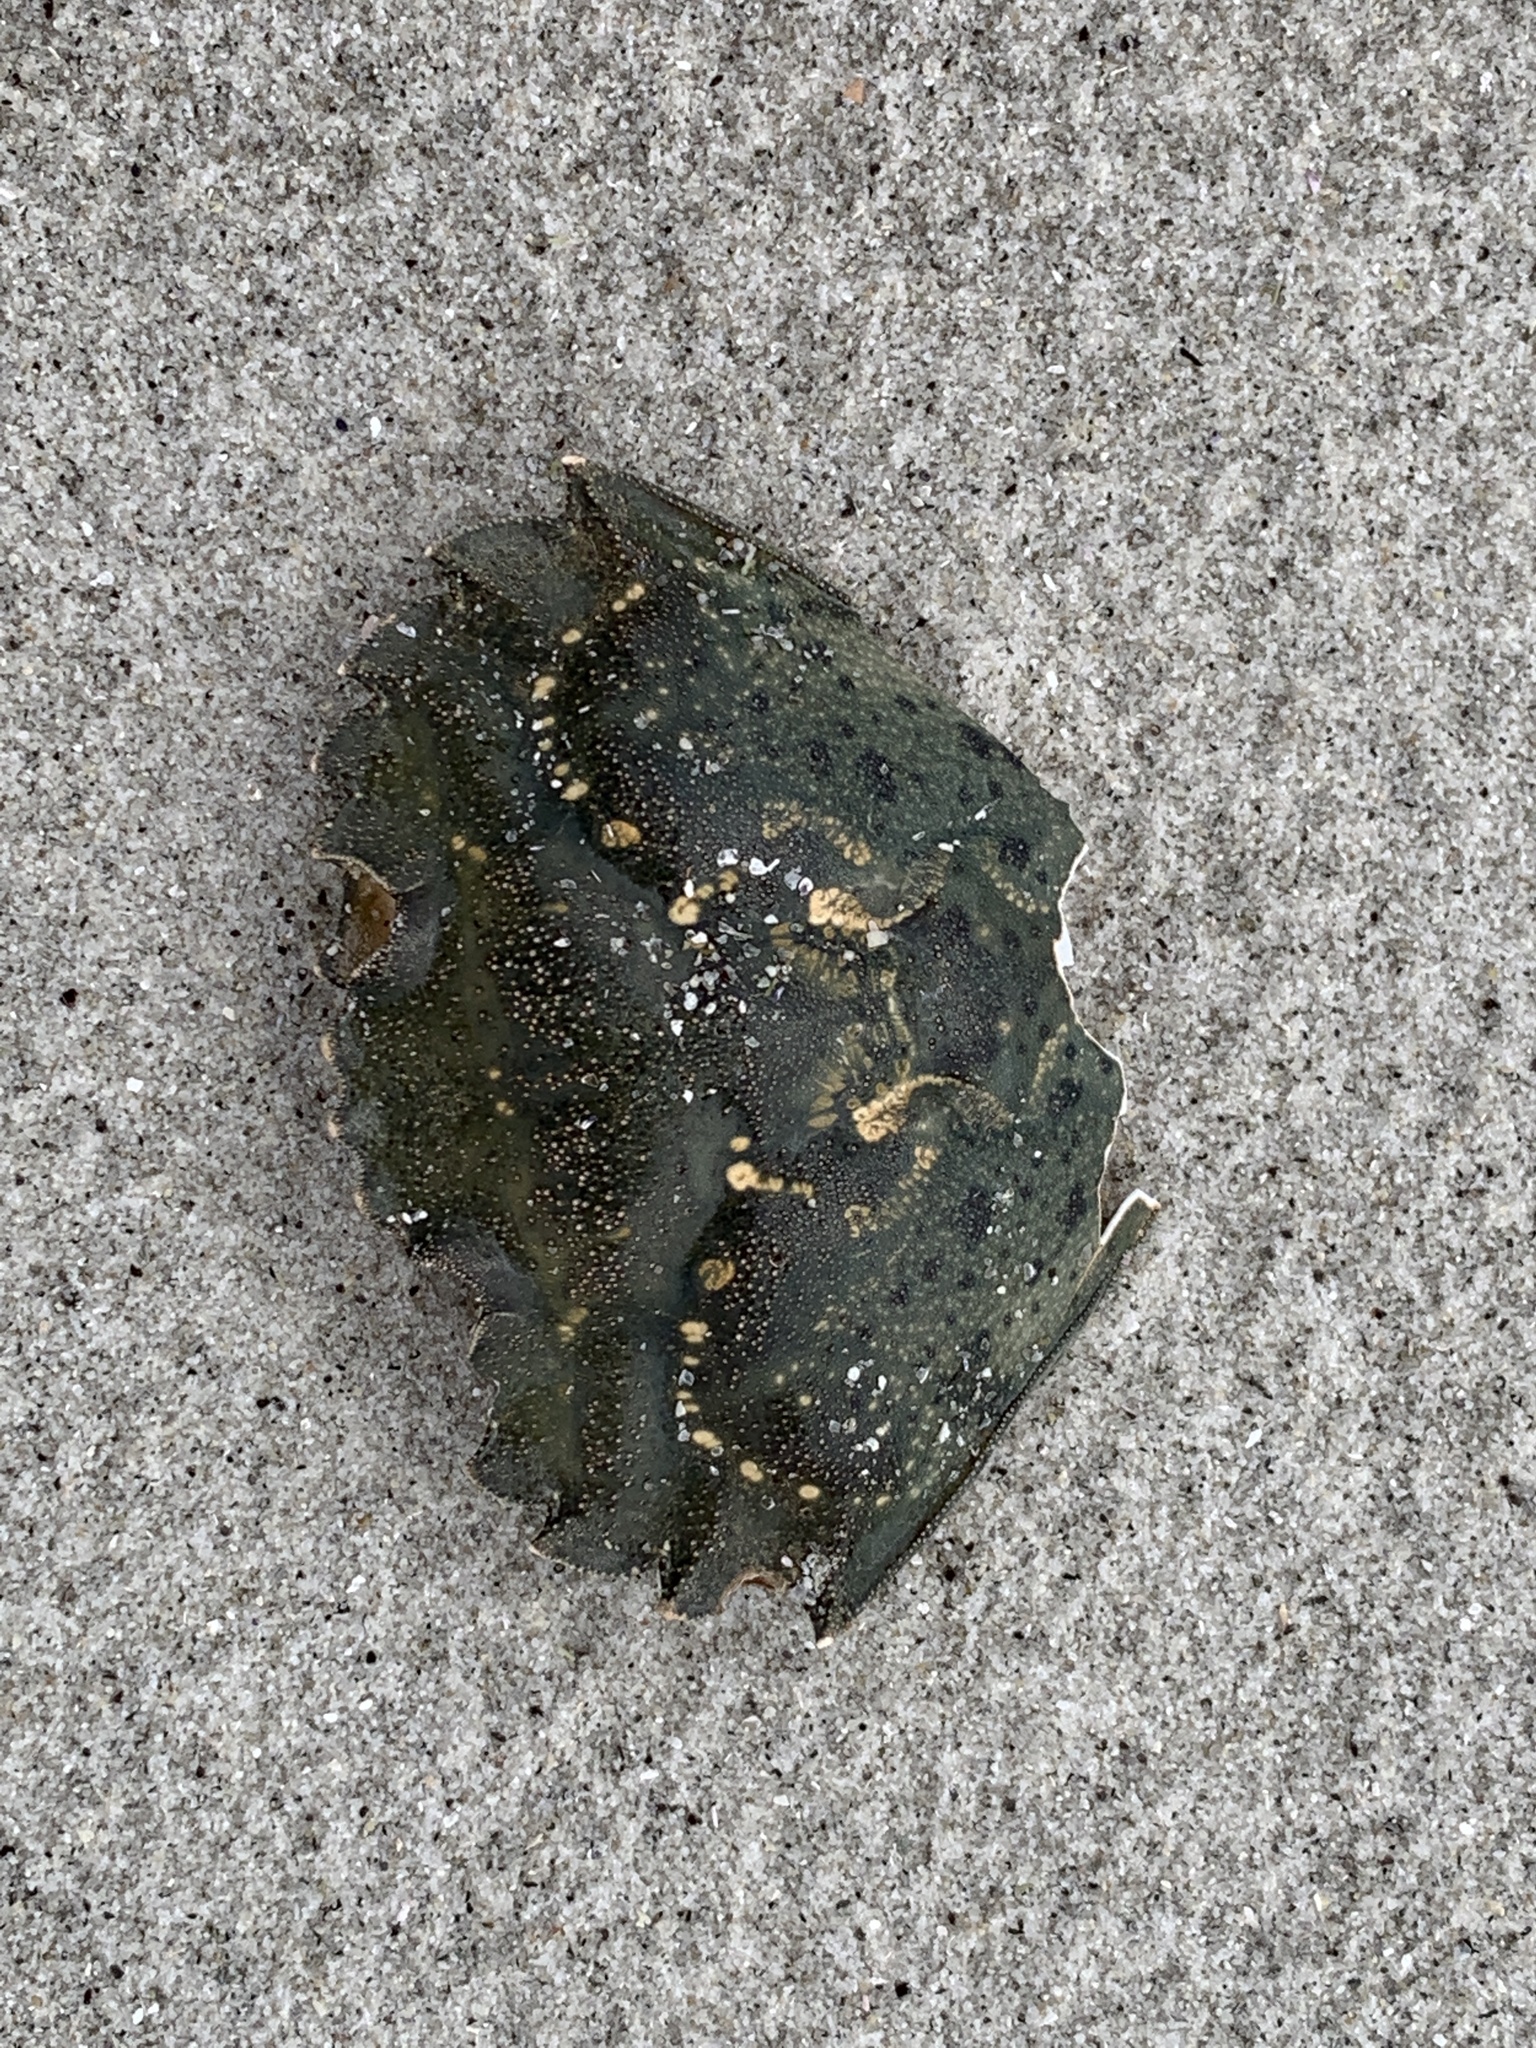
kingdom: Animalia
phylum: Arthropoda
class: Malacostraca
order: Decapoda
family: Carcinidae
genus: Carcinus
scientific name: Carcinus maenas
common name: European green crab
